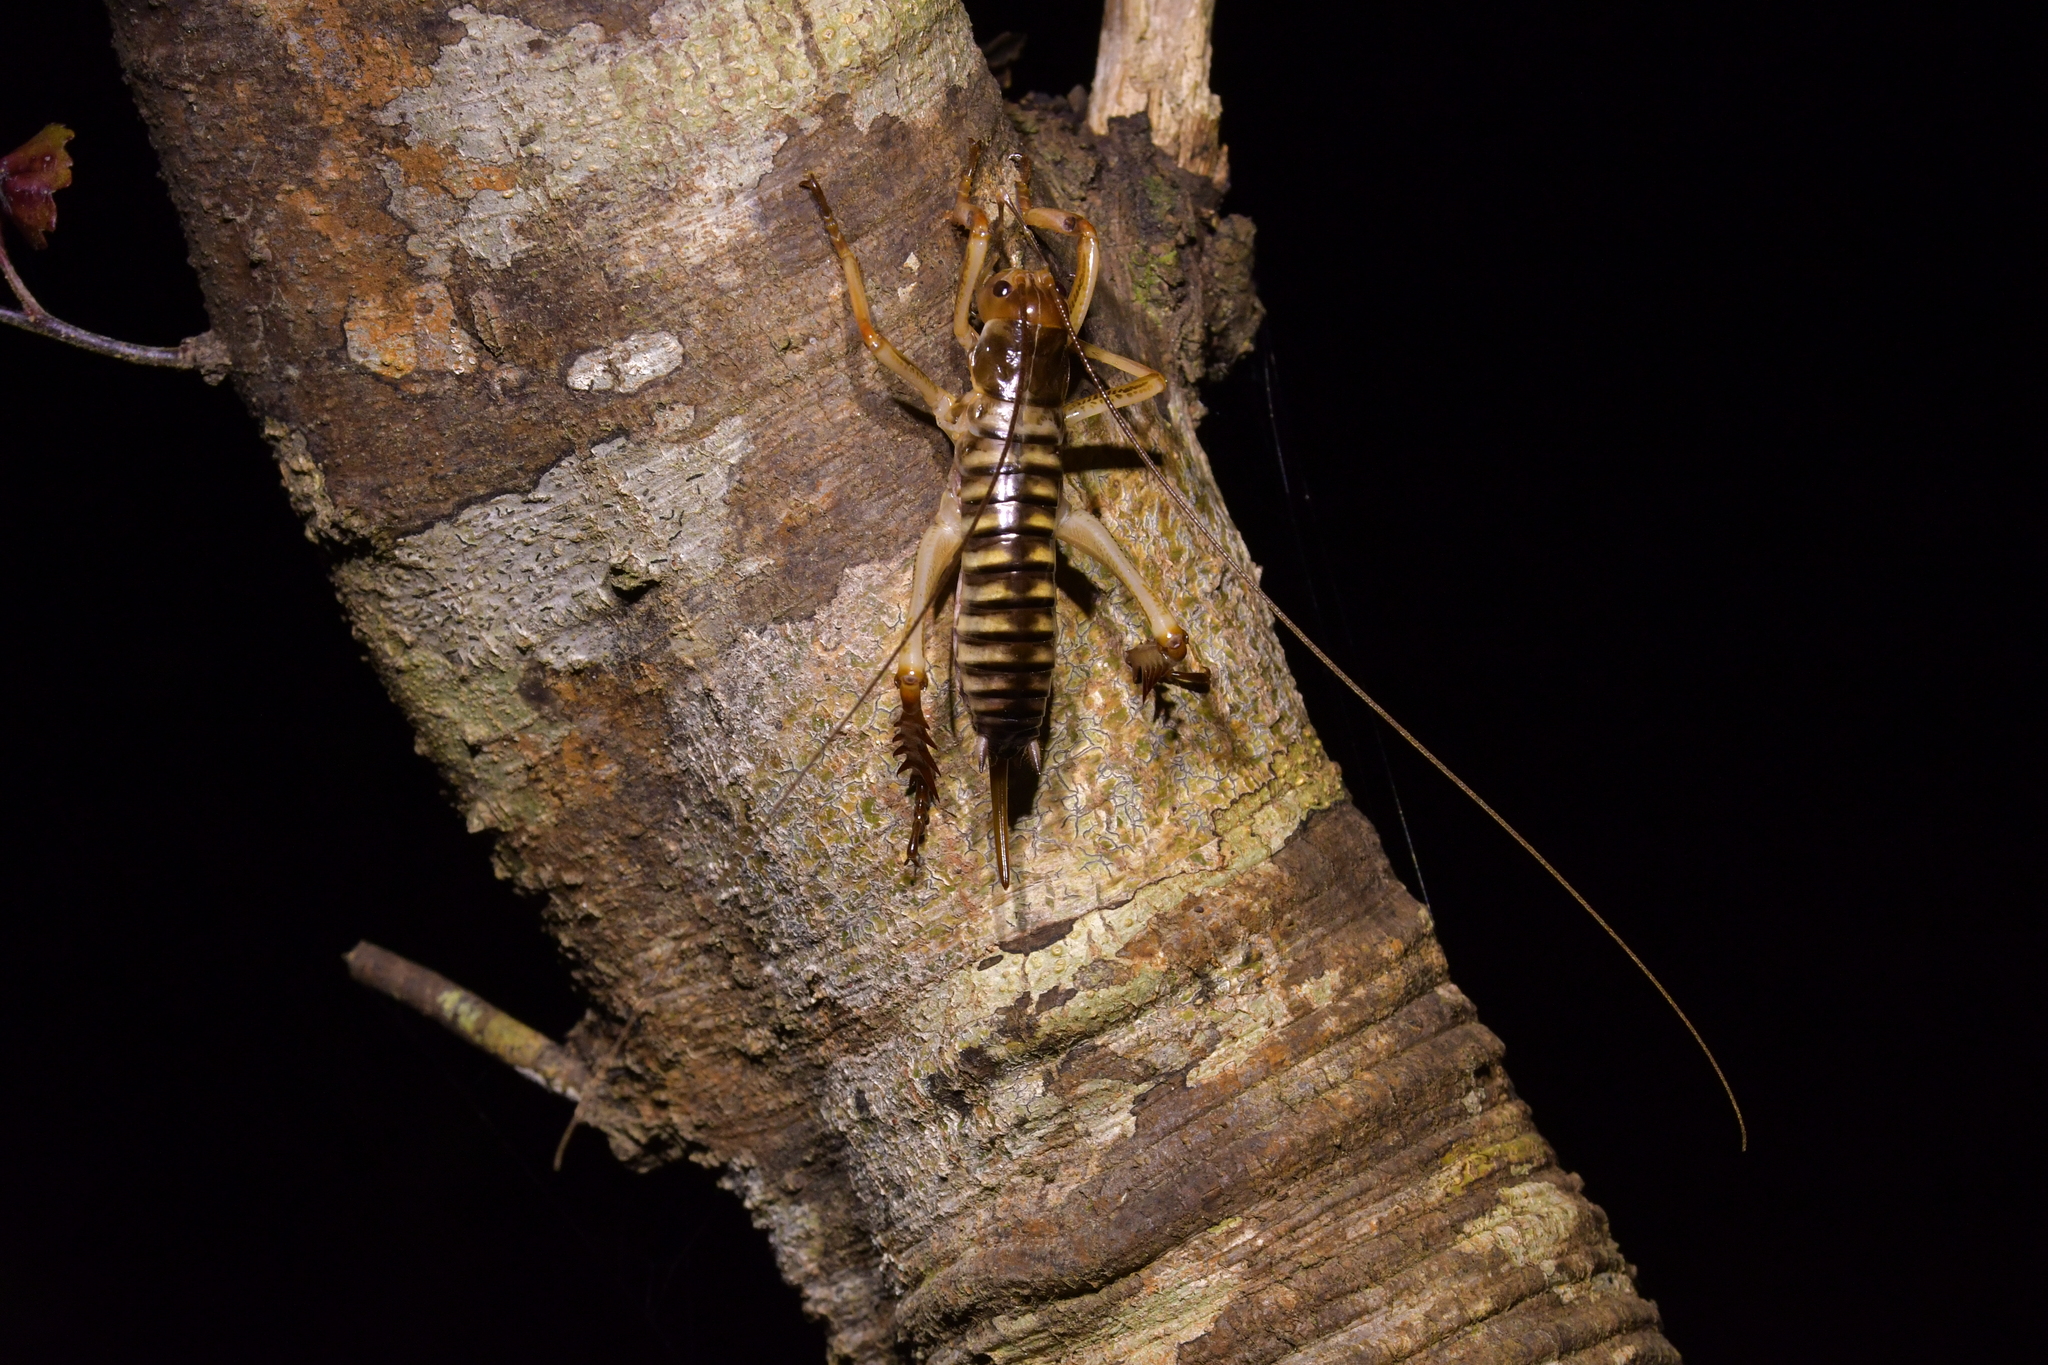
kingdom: Animalia
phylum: Arthropoda
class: Insecta
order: Orthoptera
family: Anostostomatidae
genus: Hemideina
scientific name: Hemideina crassidens
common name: Wellington tree weta
